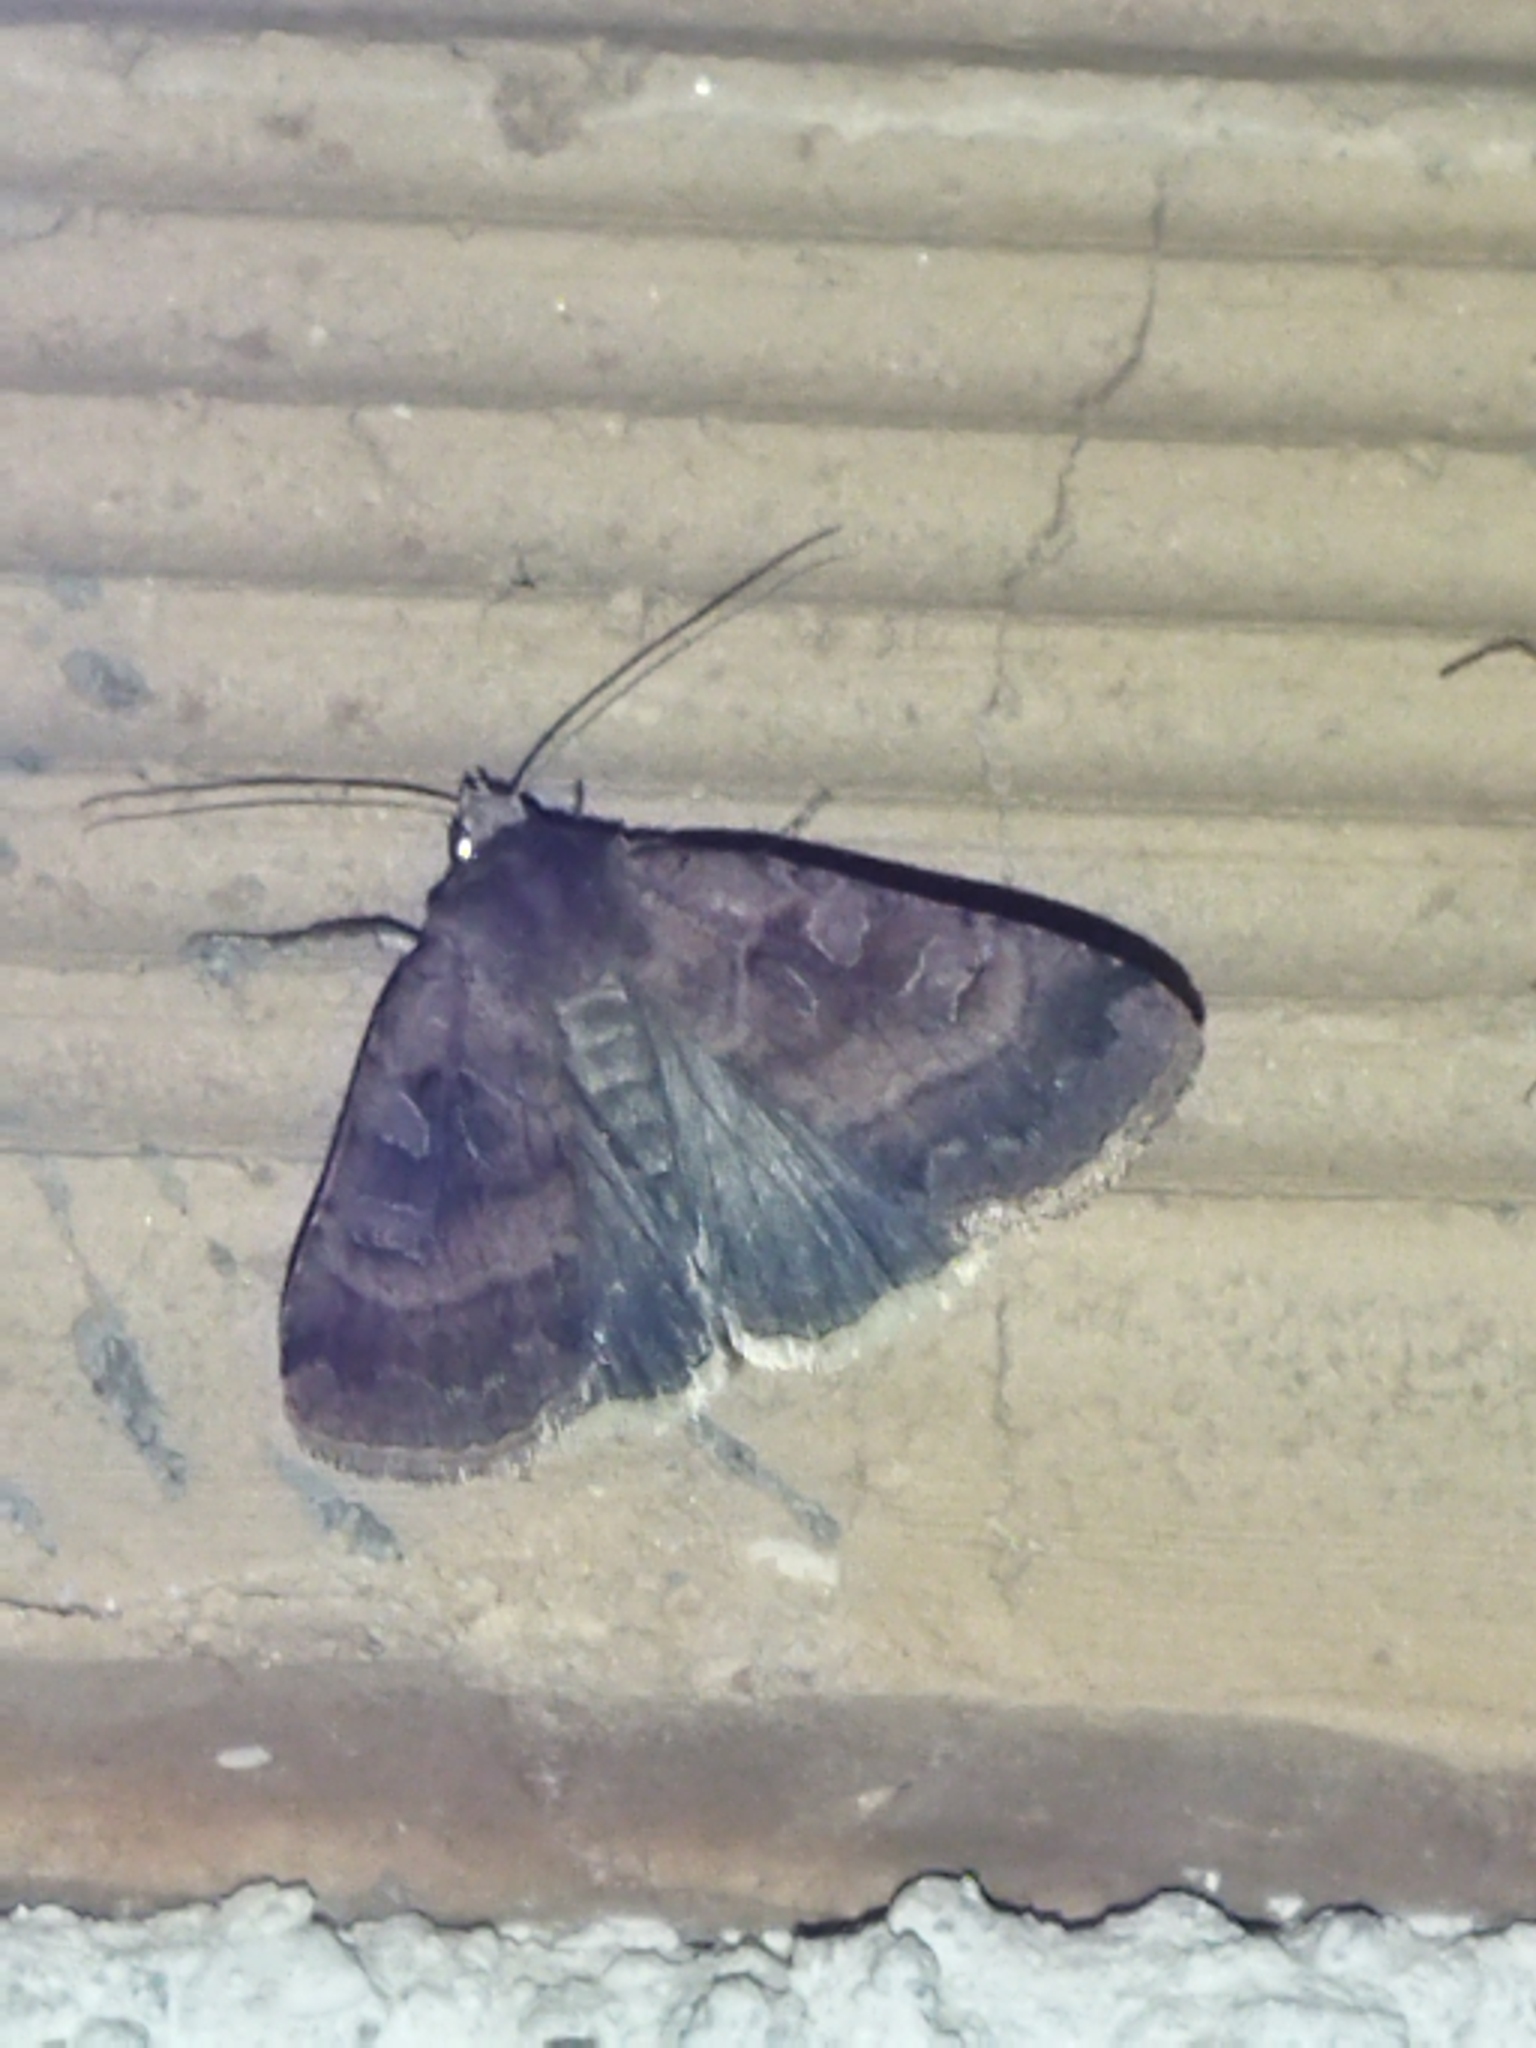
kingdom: Animalia
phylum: Arthropoda
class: Insecta
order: Lepidoptera
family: Noctuidae
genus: Xestia
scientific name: Xestia stigmatica
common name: Square-spotted clay
